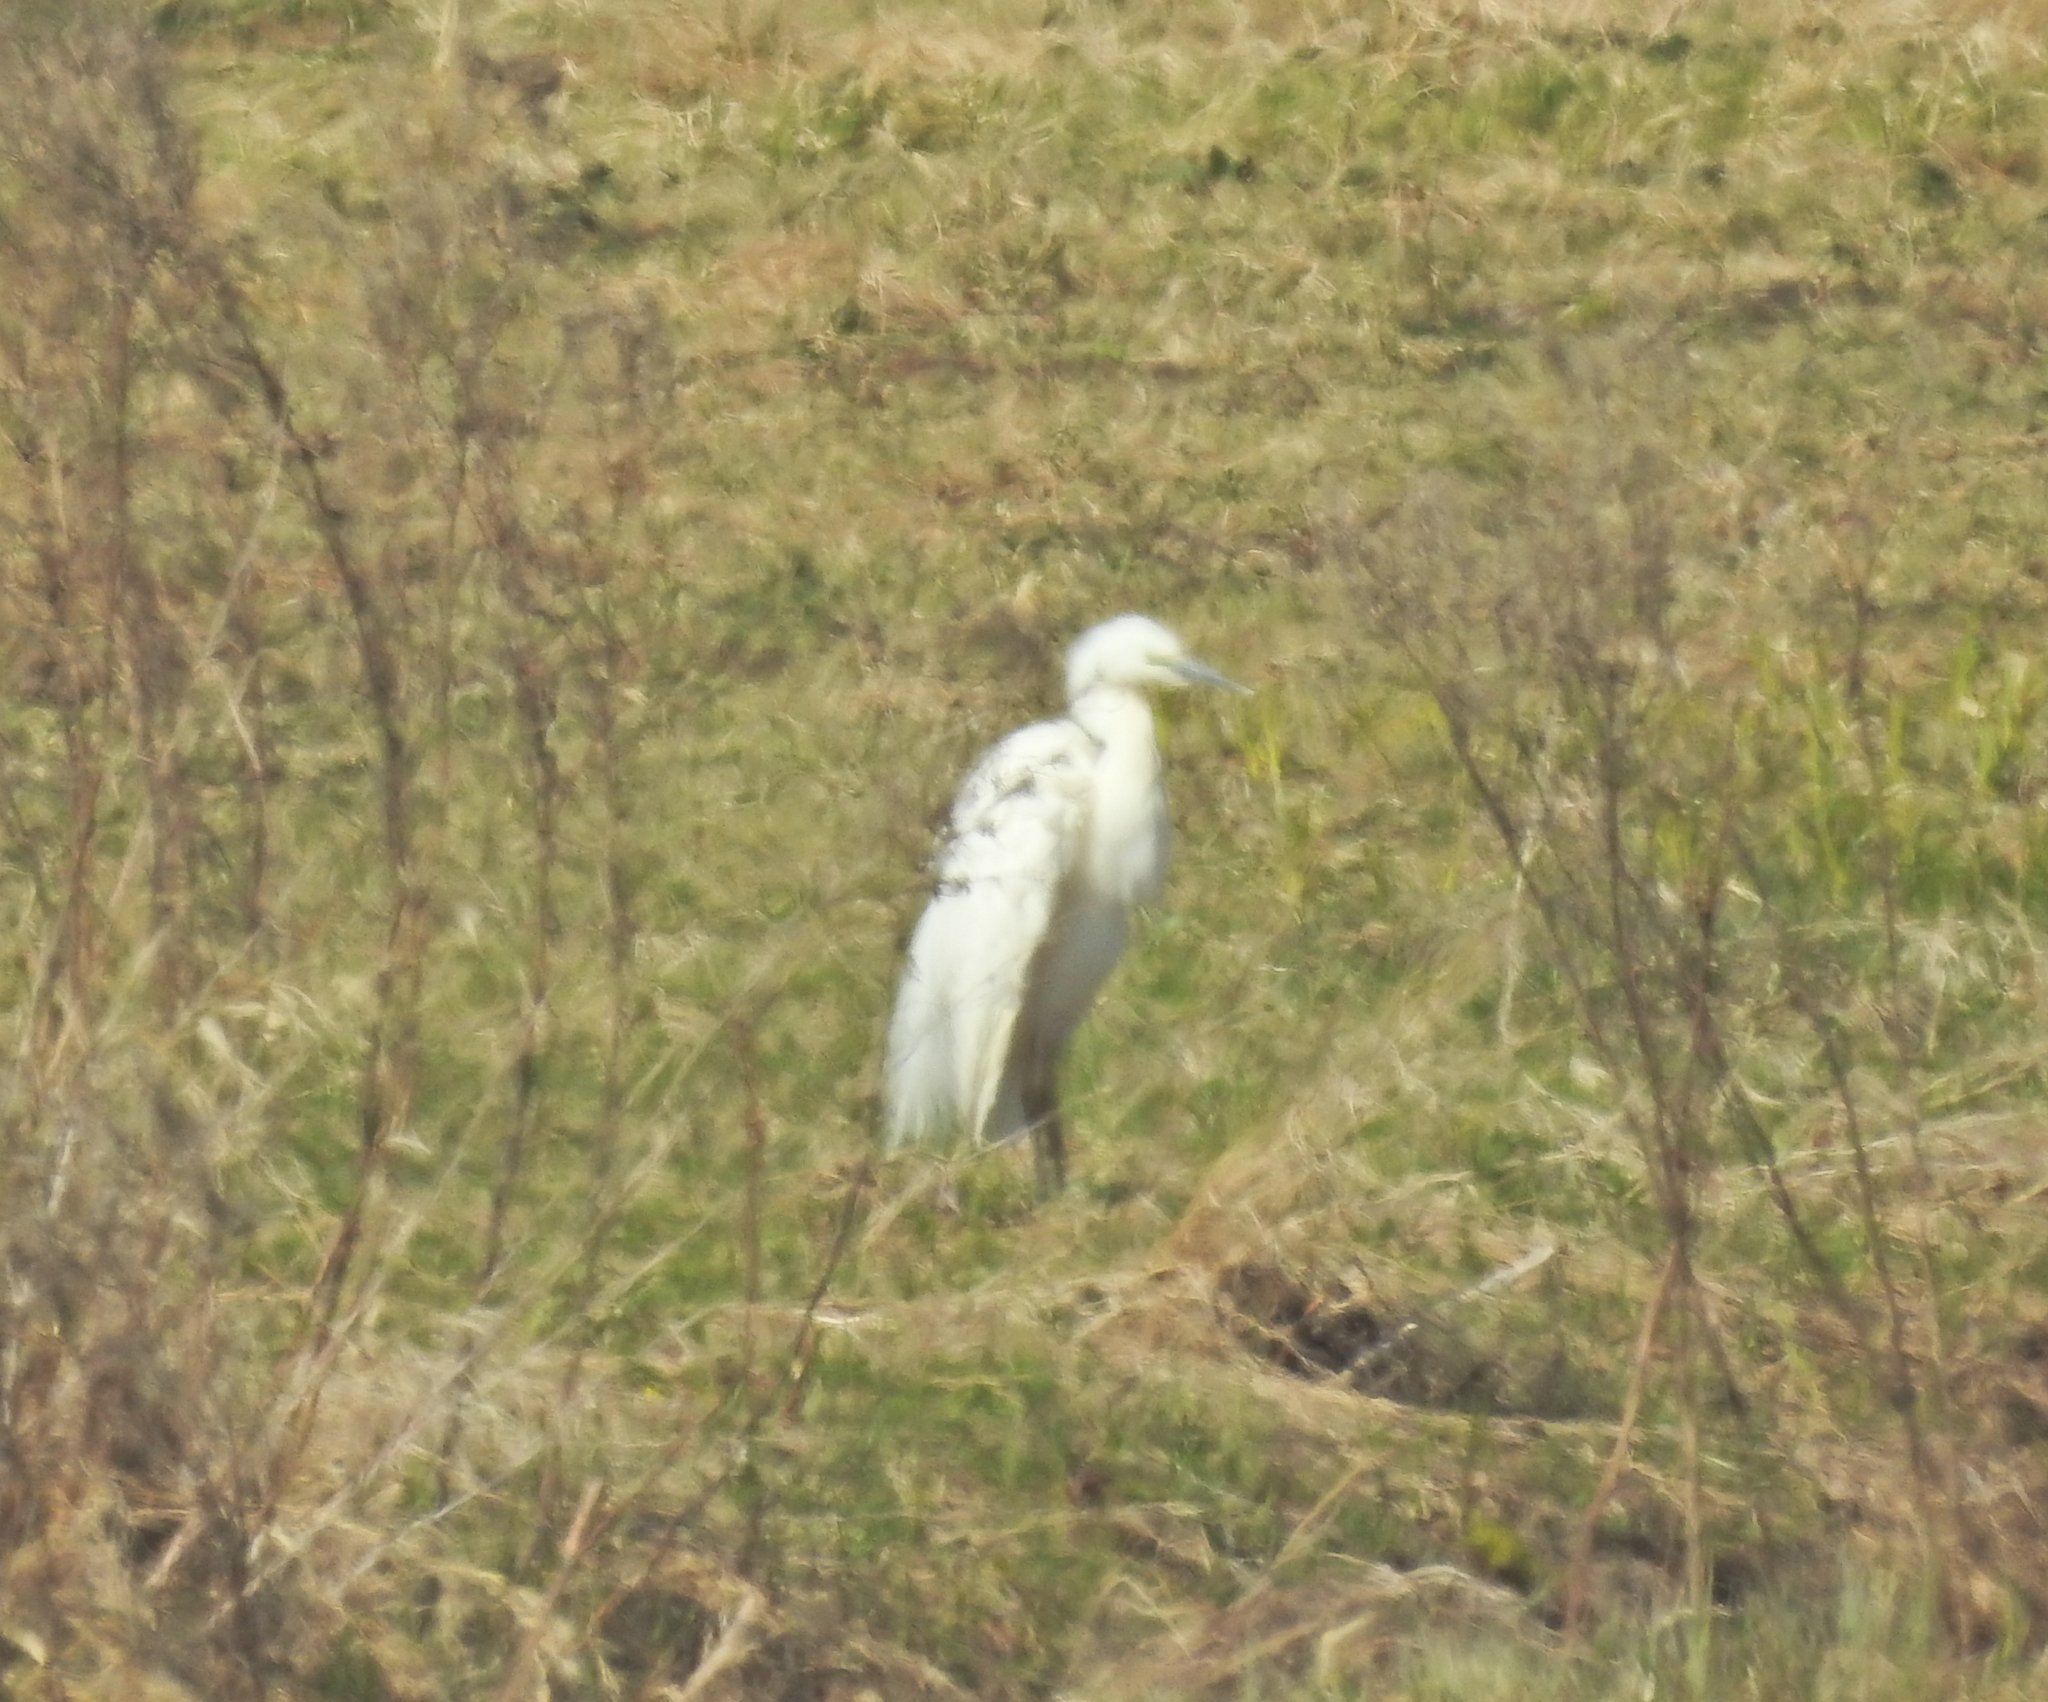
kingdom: Animalia
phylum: Chordata
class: Aves
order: Pelecaniformes
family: Ardeidae
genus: Ardea
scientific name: Ardea alba
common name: Great egret
